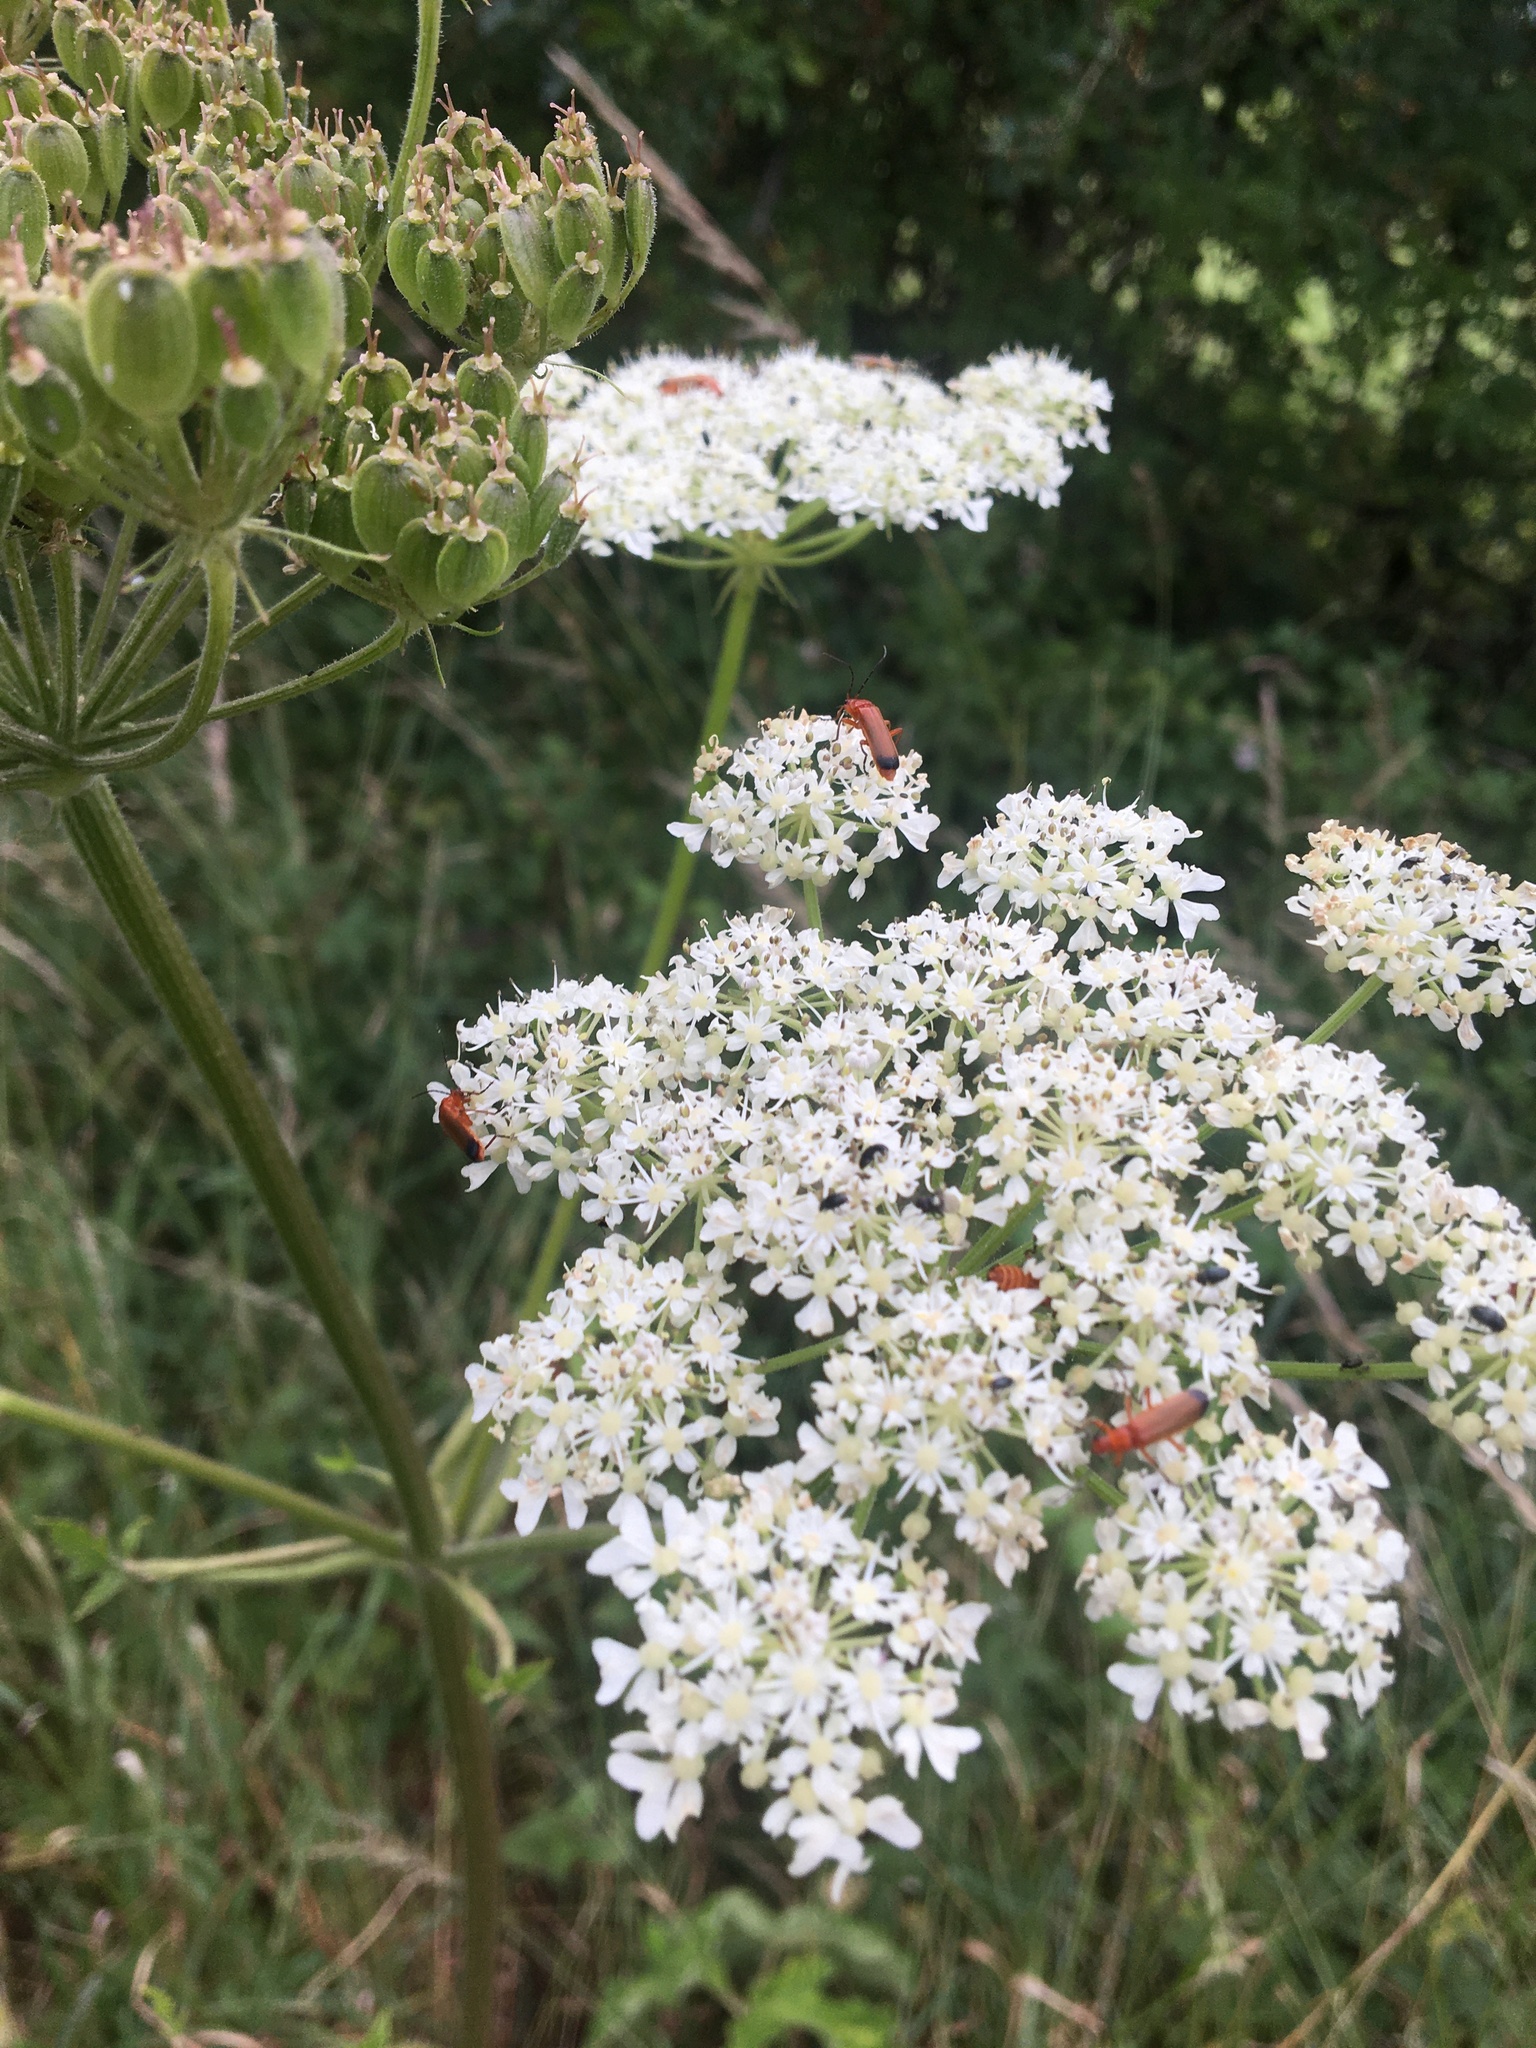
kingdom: Animalia
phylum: Arthropoda
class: Insecta
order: Coleoptera
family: Cantharidae
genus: Rhagonycha
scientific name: Rhagonycha fulva
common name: Common red soldier beetle
